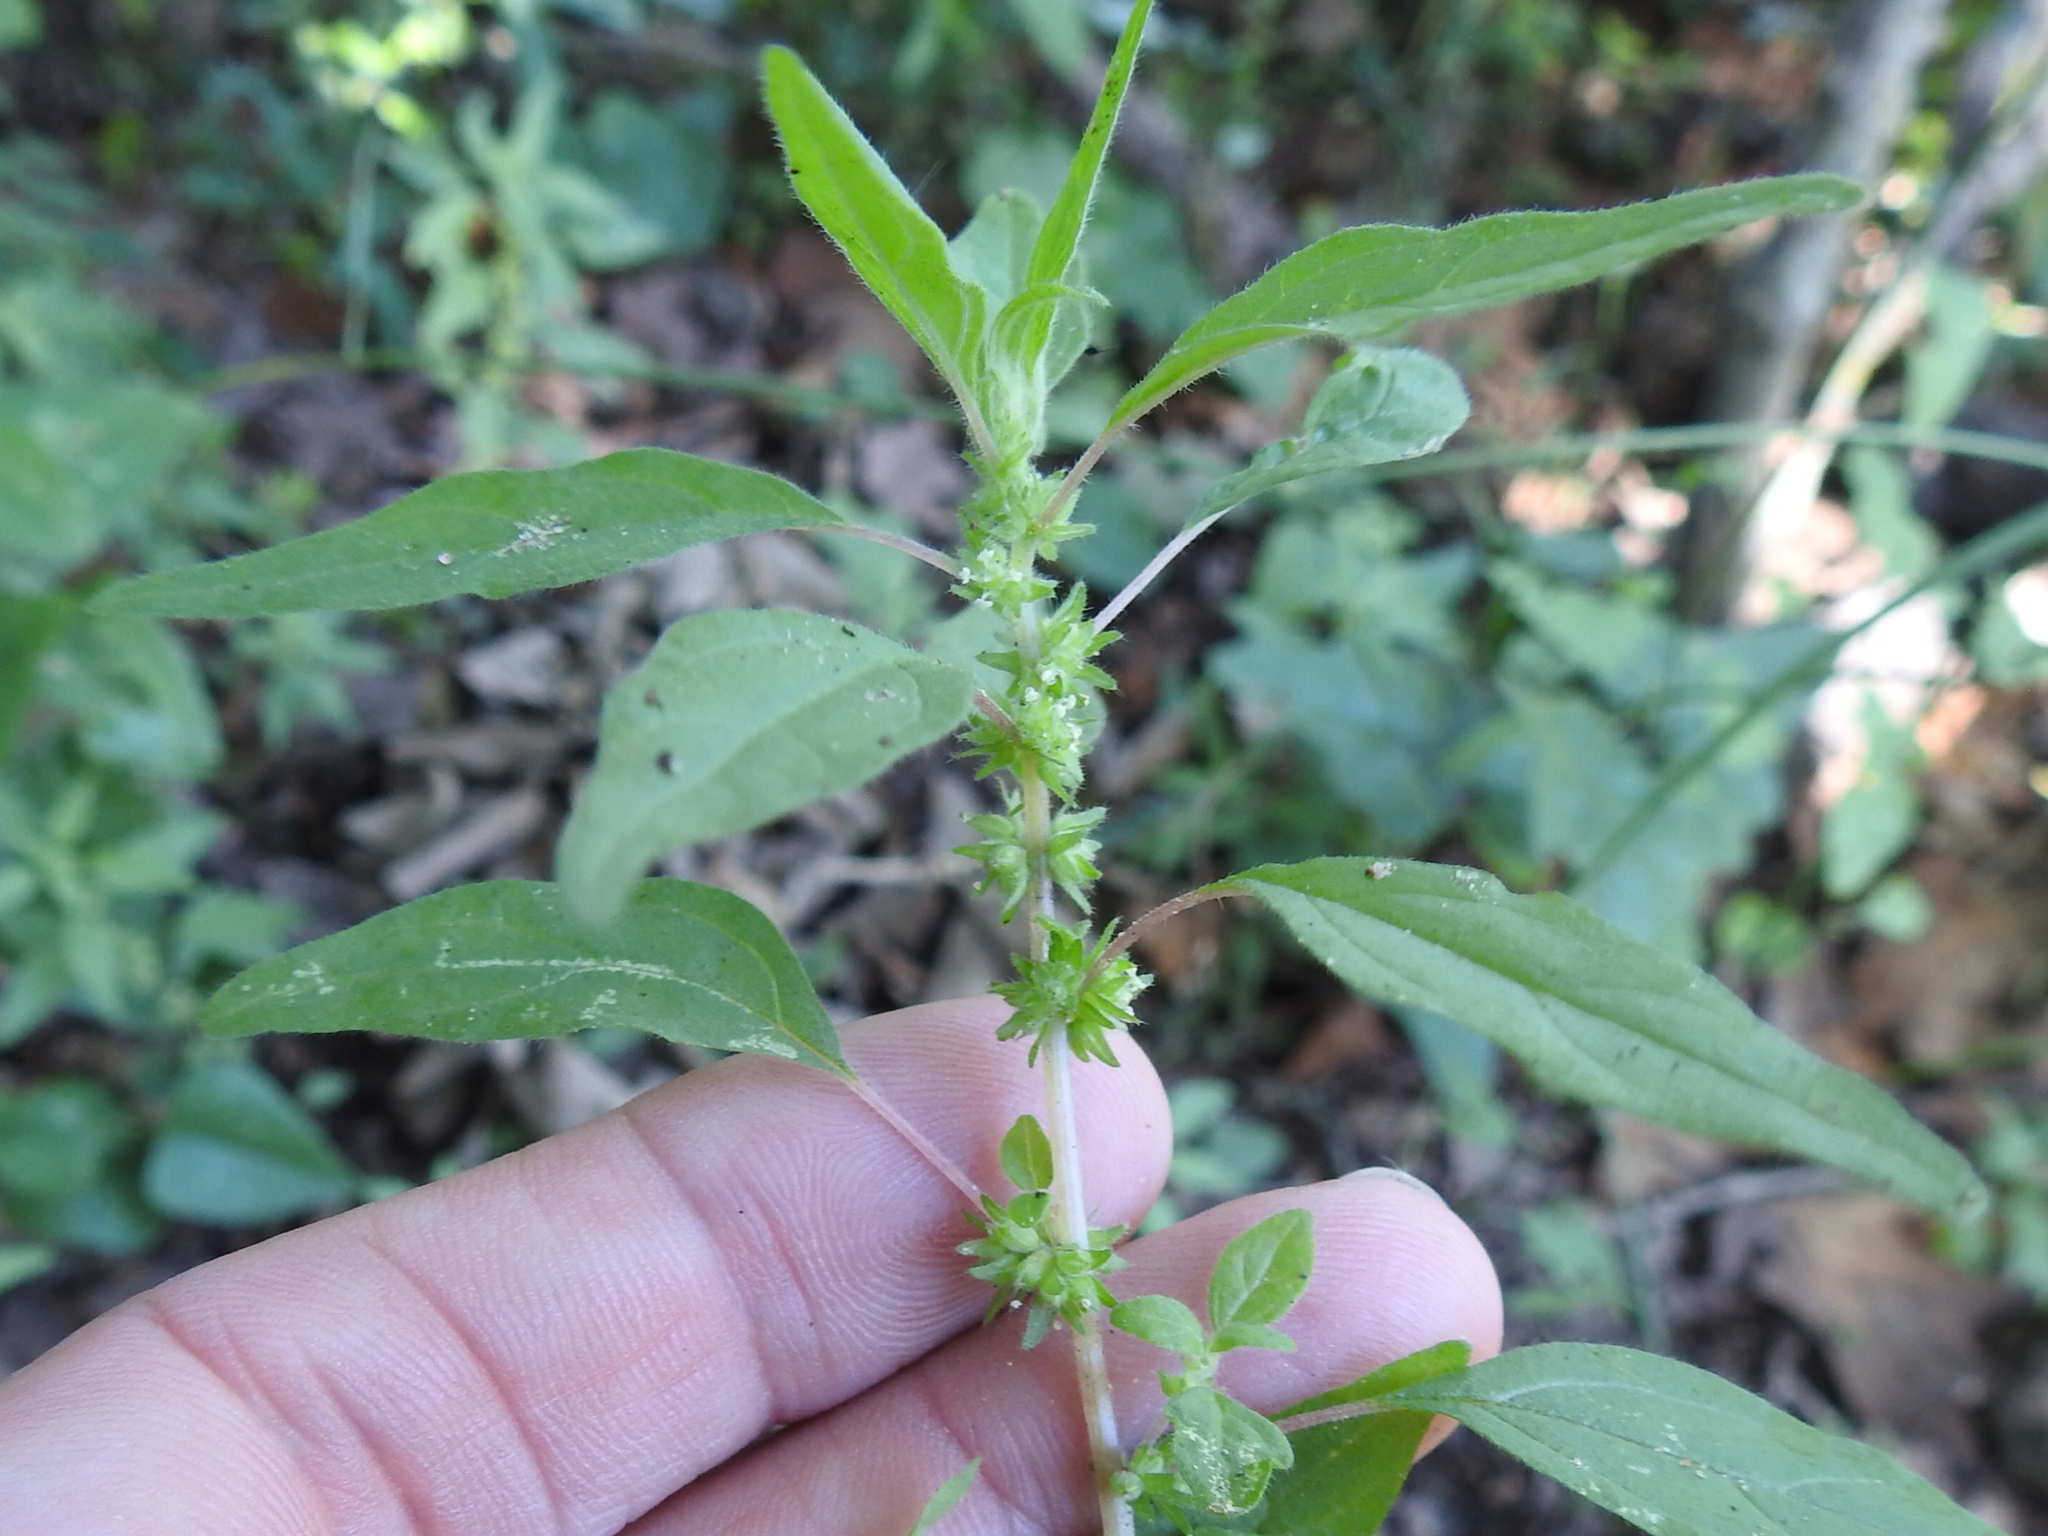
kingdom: Plantae
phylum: Tracheophyta
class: Magnoliopsida
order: Rosales
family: Urticaceae
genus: Parietaria
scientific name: Parietaria pensylvanica
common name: Pennsylvania pellitory
